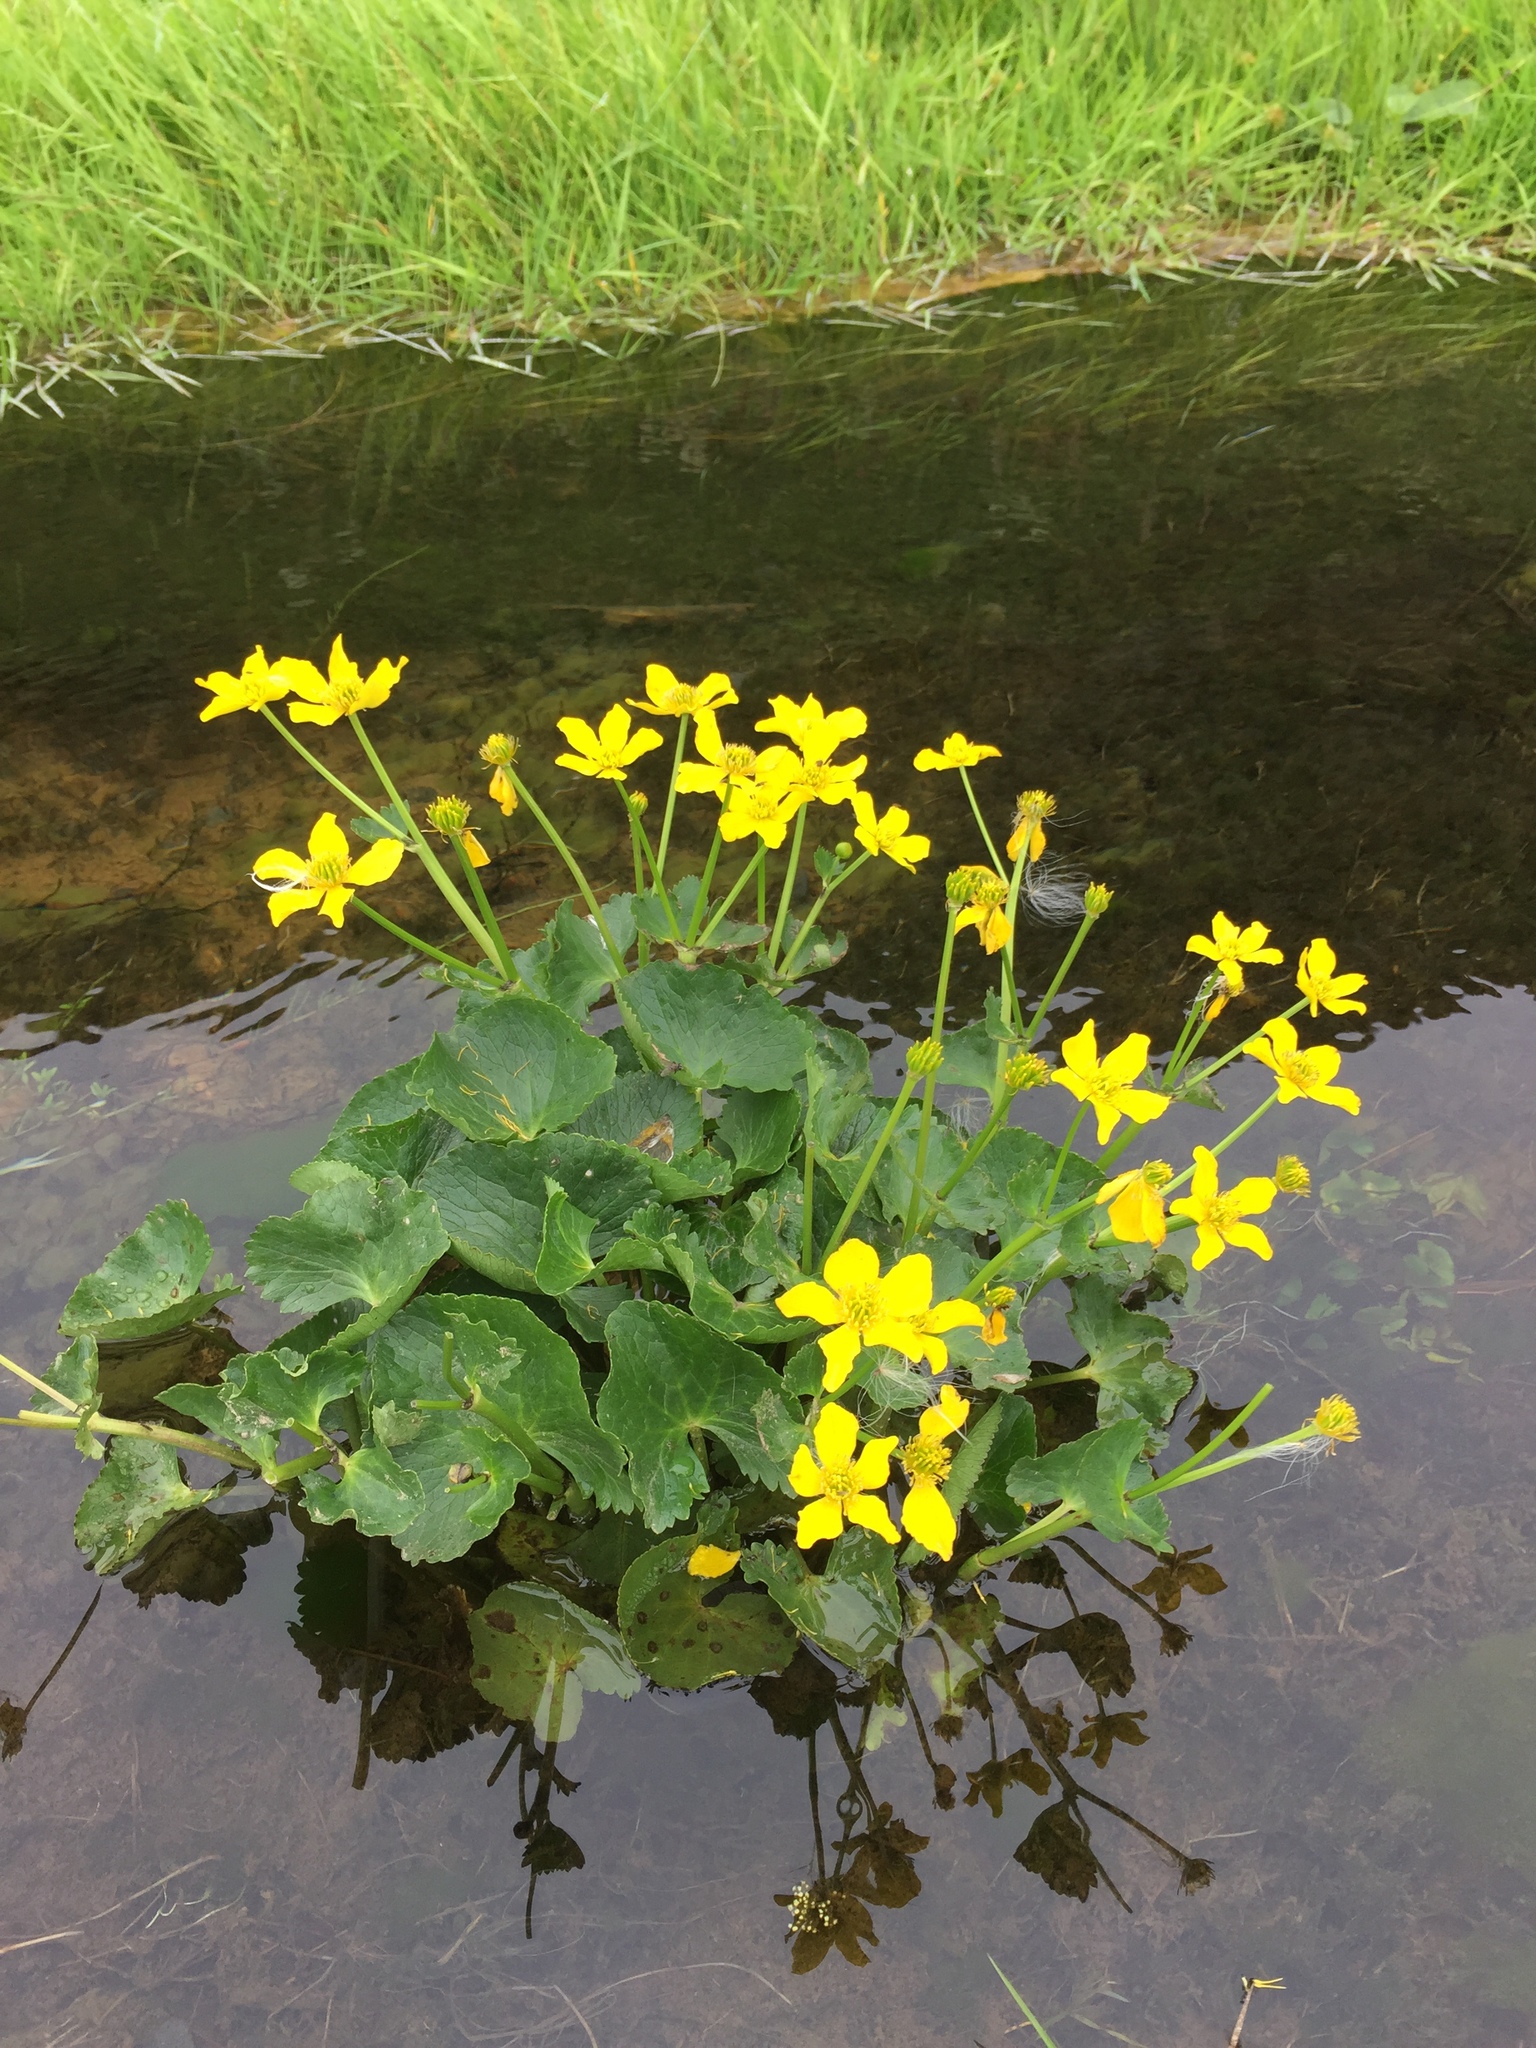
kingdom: Plantae
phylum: Tracheophyta
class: Magnoliopsida
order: Ranunculales
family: Ranunculaceae
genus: Caltha
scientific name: Caltha palustris
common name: Marsh marigold
